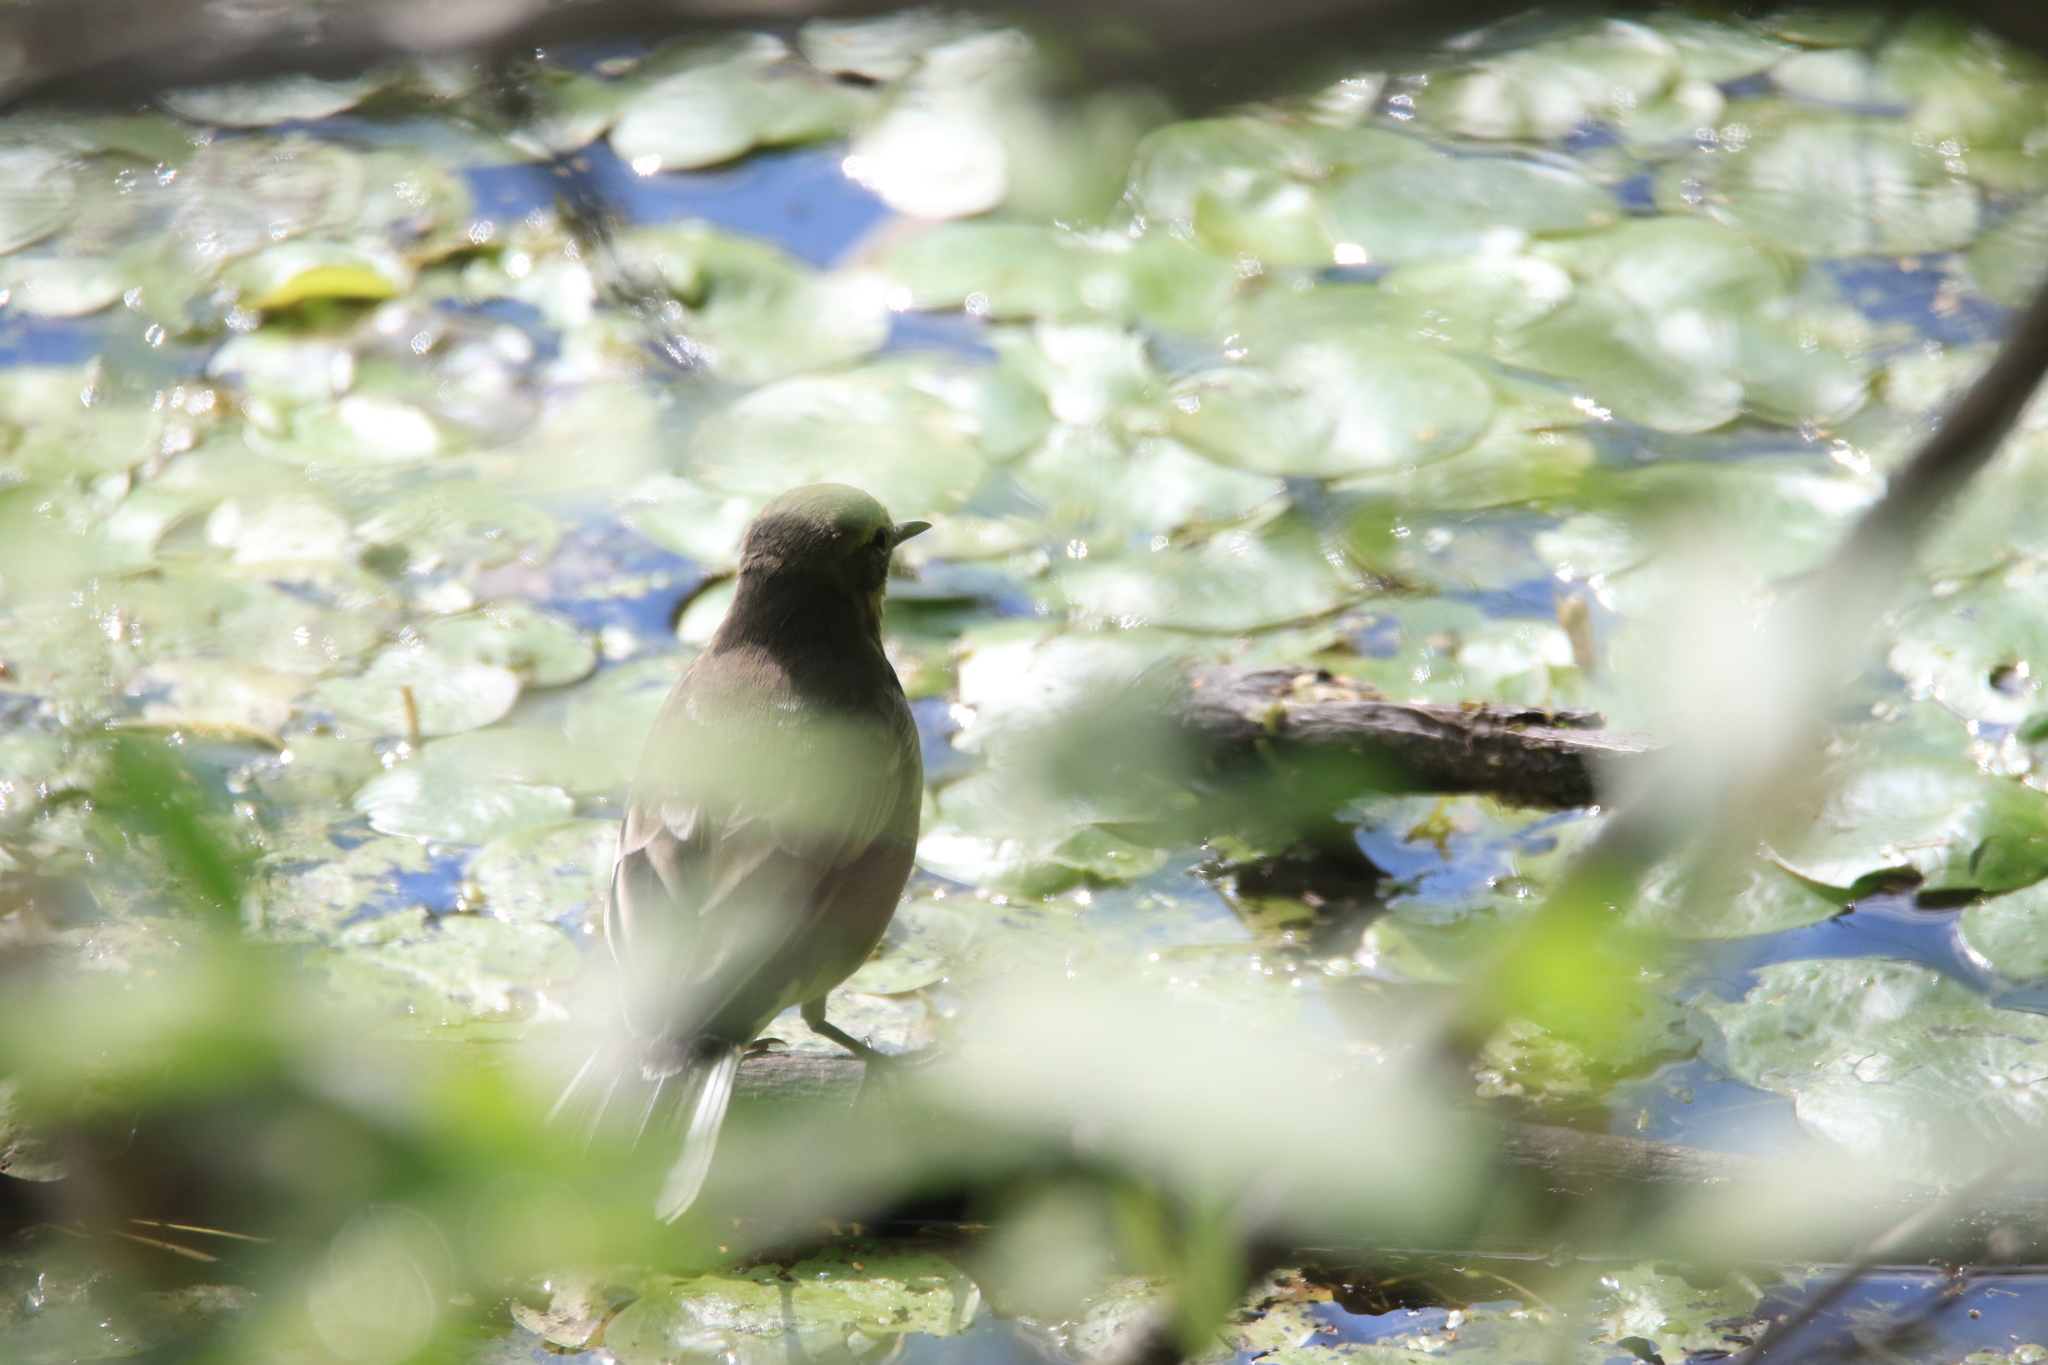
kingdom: Animalia
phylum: Chordata
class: Aves
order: Passeriformes
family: Motacillidae
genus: Motacilla
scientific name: Motacilla citreola
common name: Citrine wagtail
